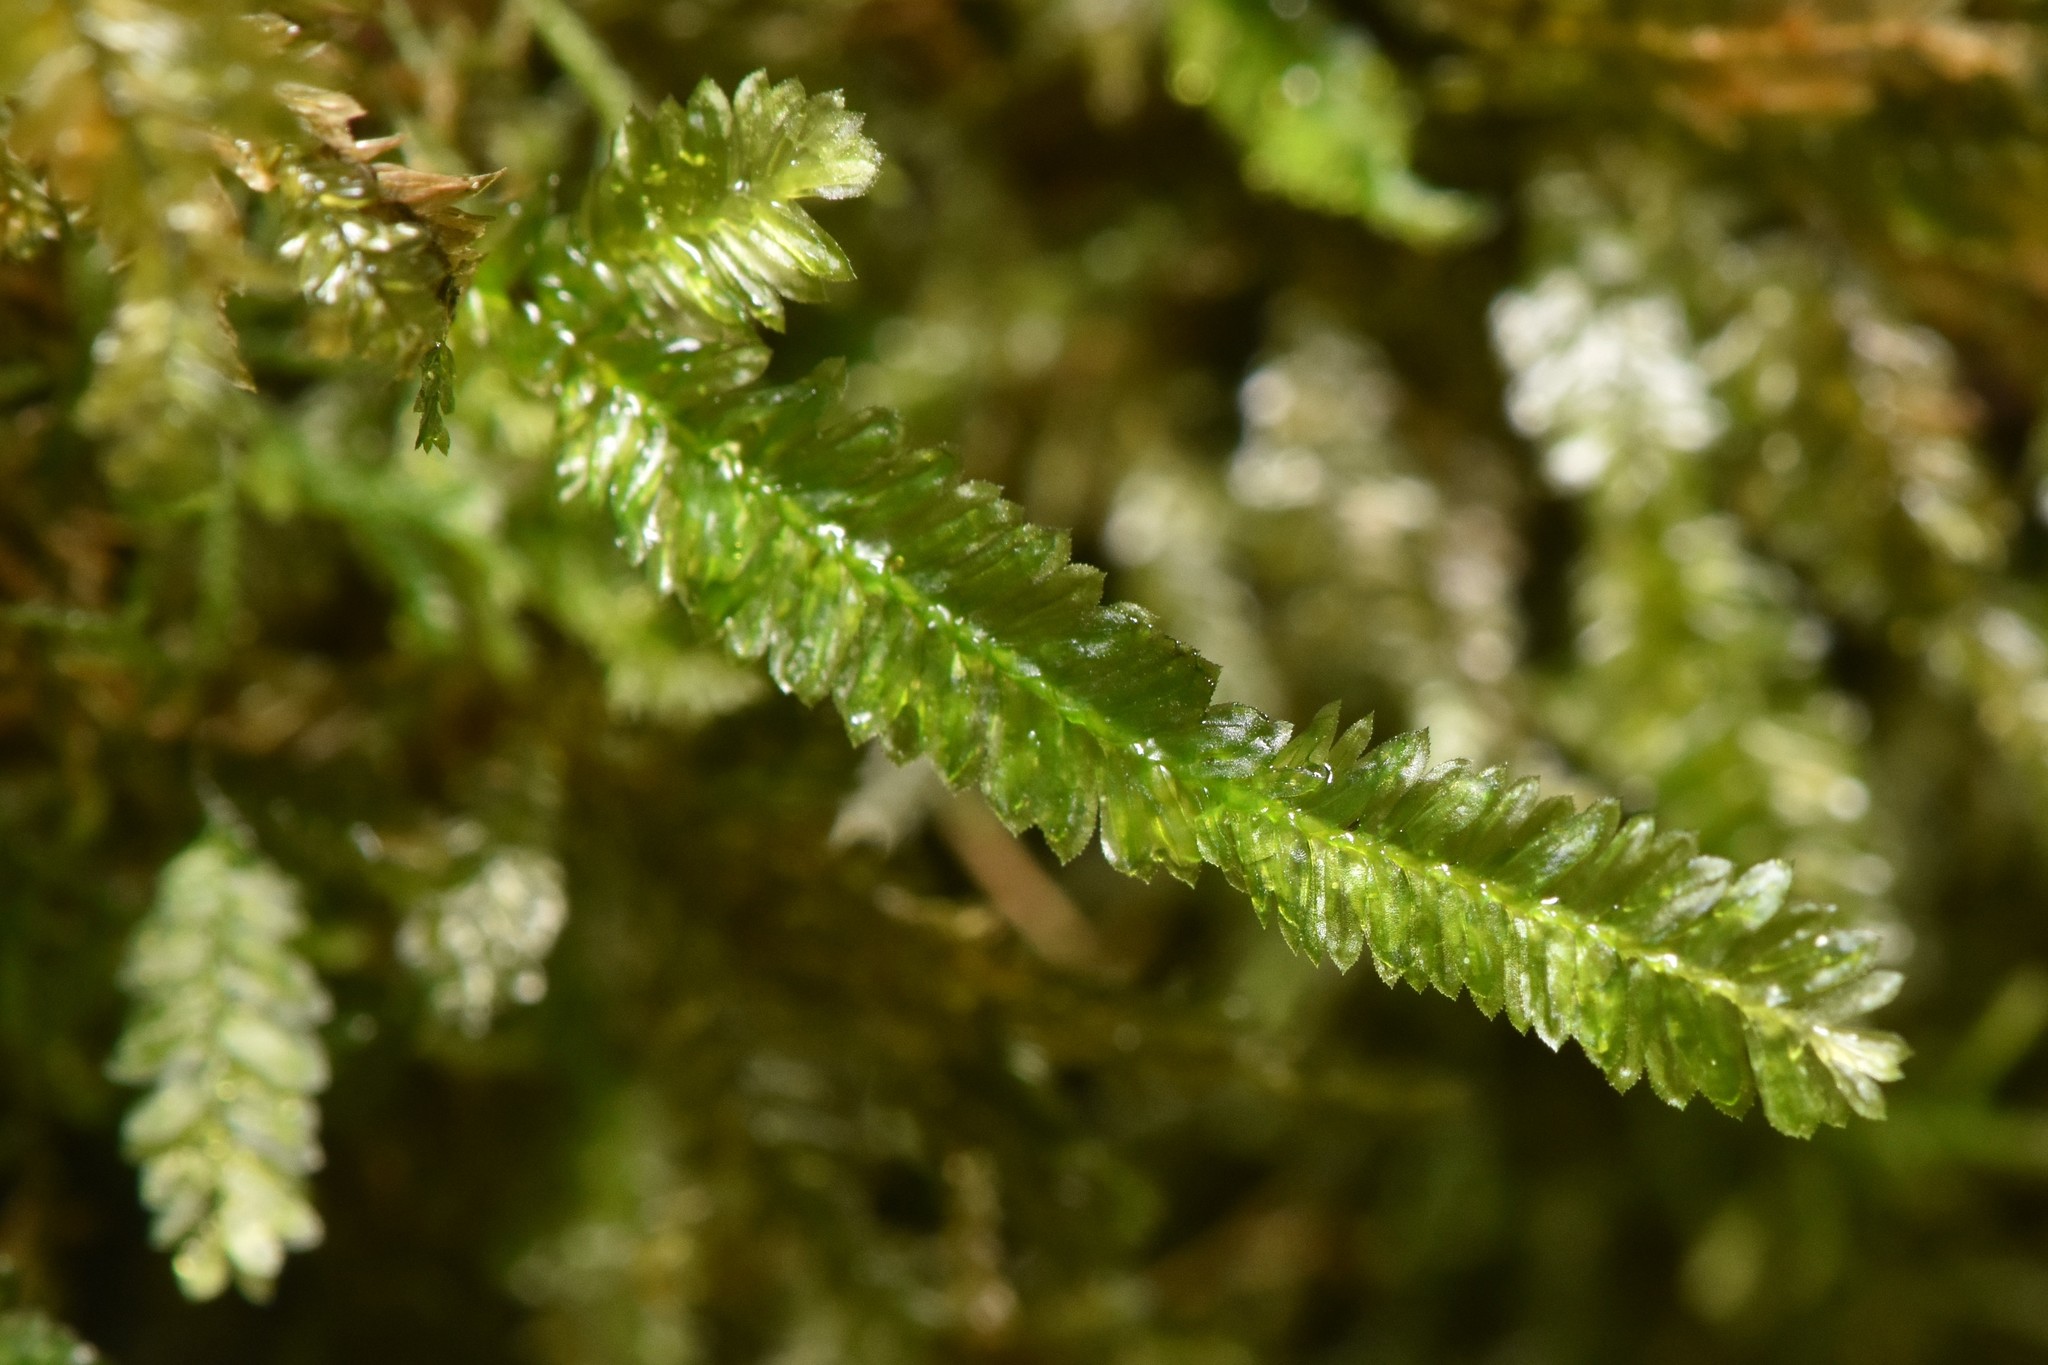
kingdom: Plantae
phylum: Bryophyta
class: Bryopsida
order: Hypnales
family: Neckeraceae
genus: Dannorrisia
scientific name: Dannorrisia bigelovii
